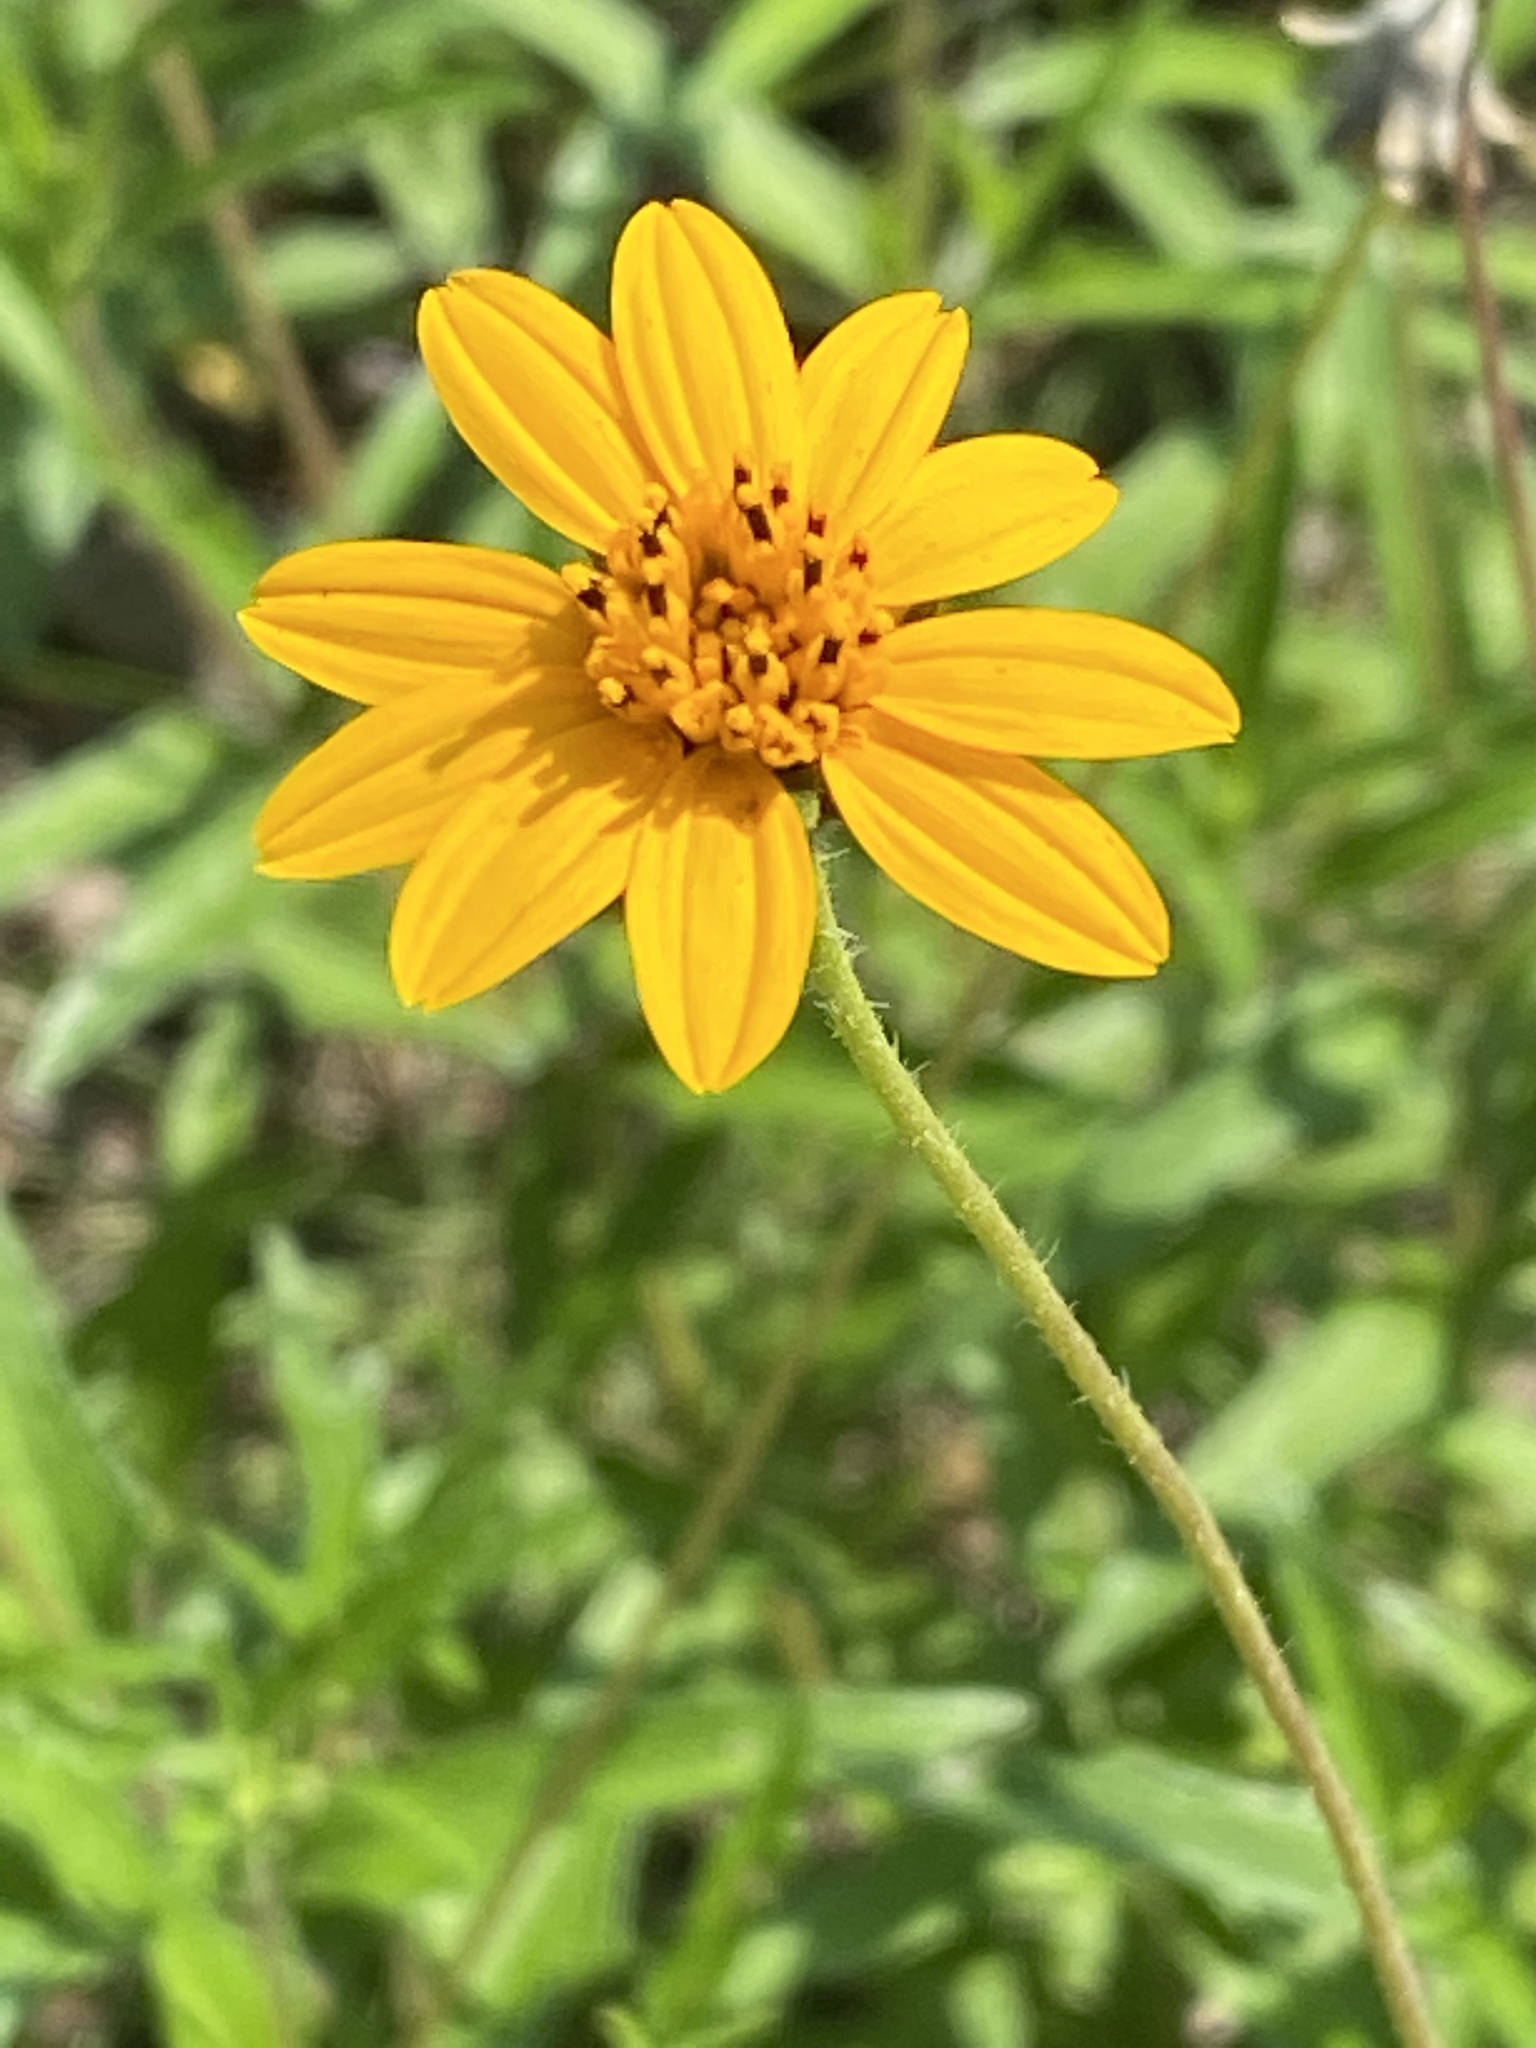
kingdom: Plantae
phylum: Tracheophyta
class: Magnoliopsida
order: Asterales
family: Asteraceae
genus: Wedelia
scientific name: Wedelia acapulcensis
